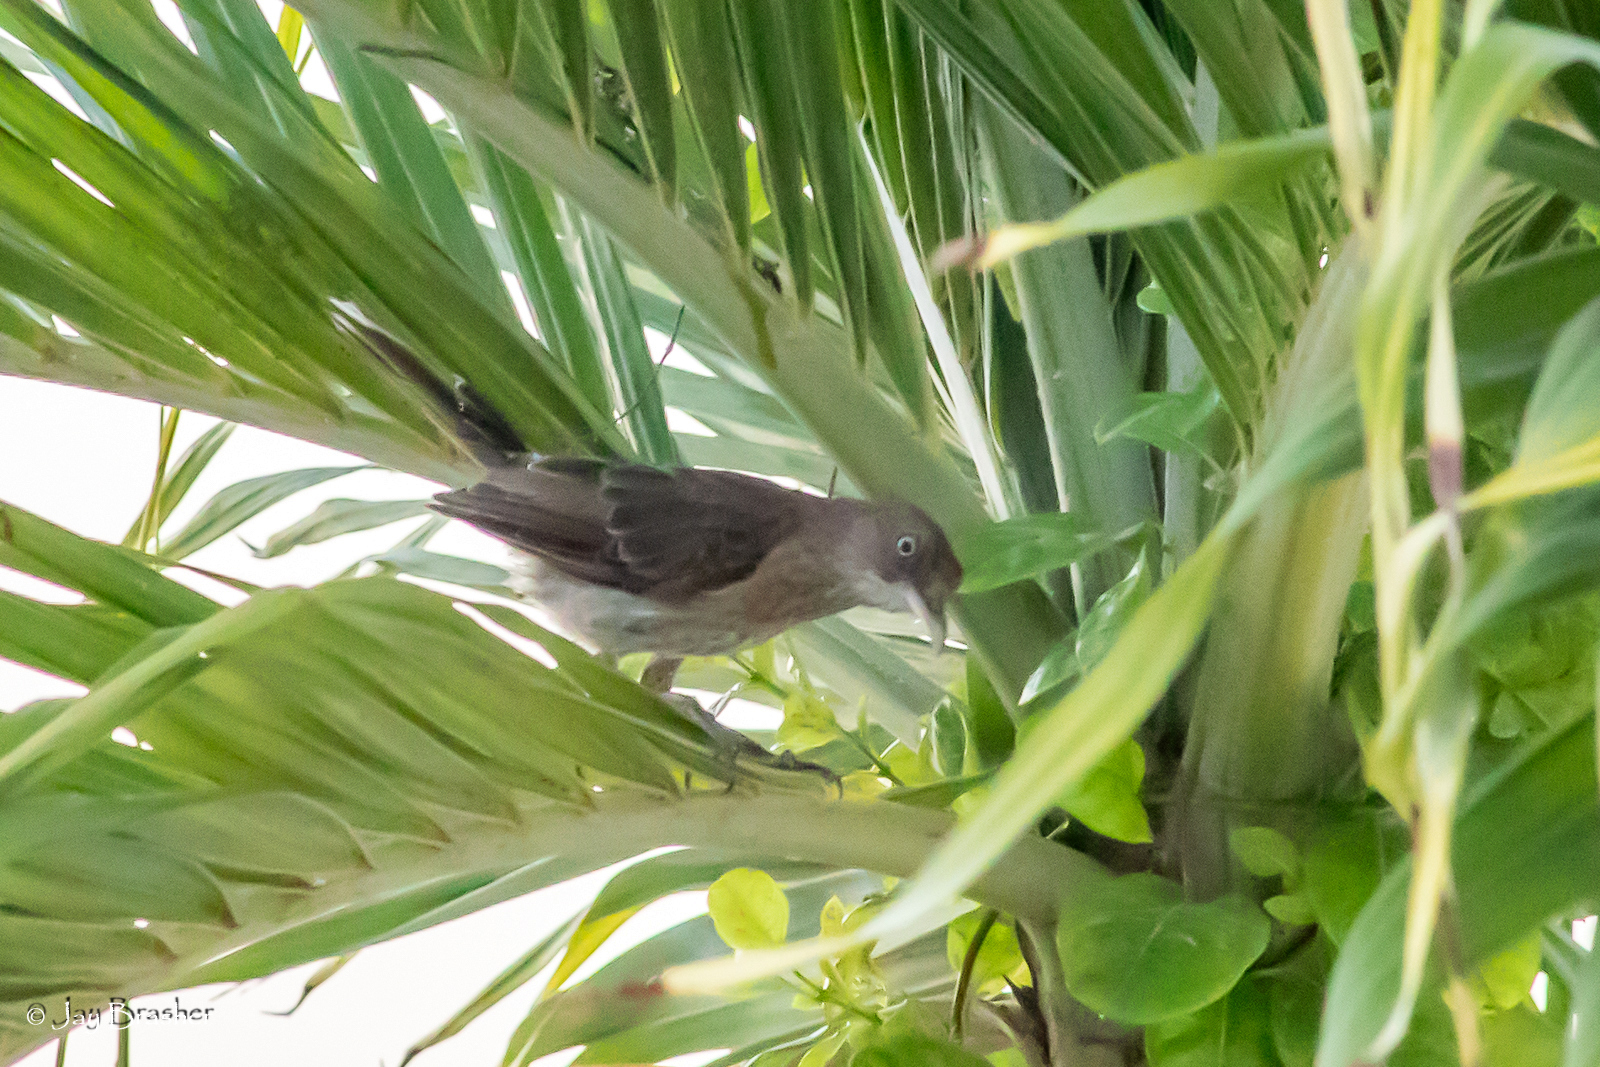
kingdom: Animalia
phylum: Chordata
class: Aves
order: Passeriformes
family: Mimidae
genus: Margarops
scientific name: Margarops fuscatus
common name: Pearly-eyed thrasher
